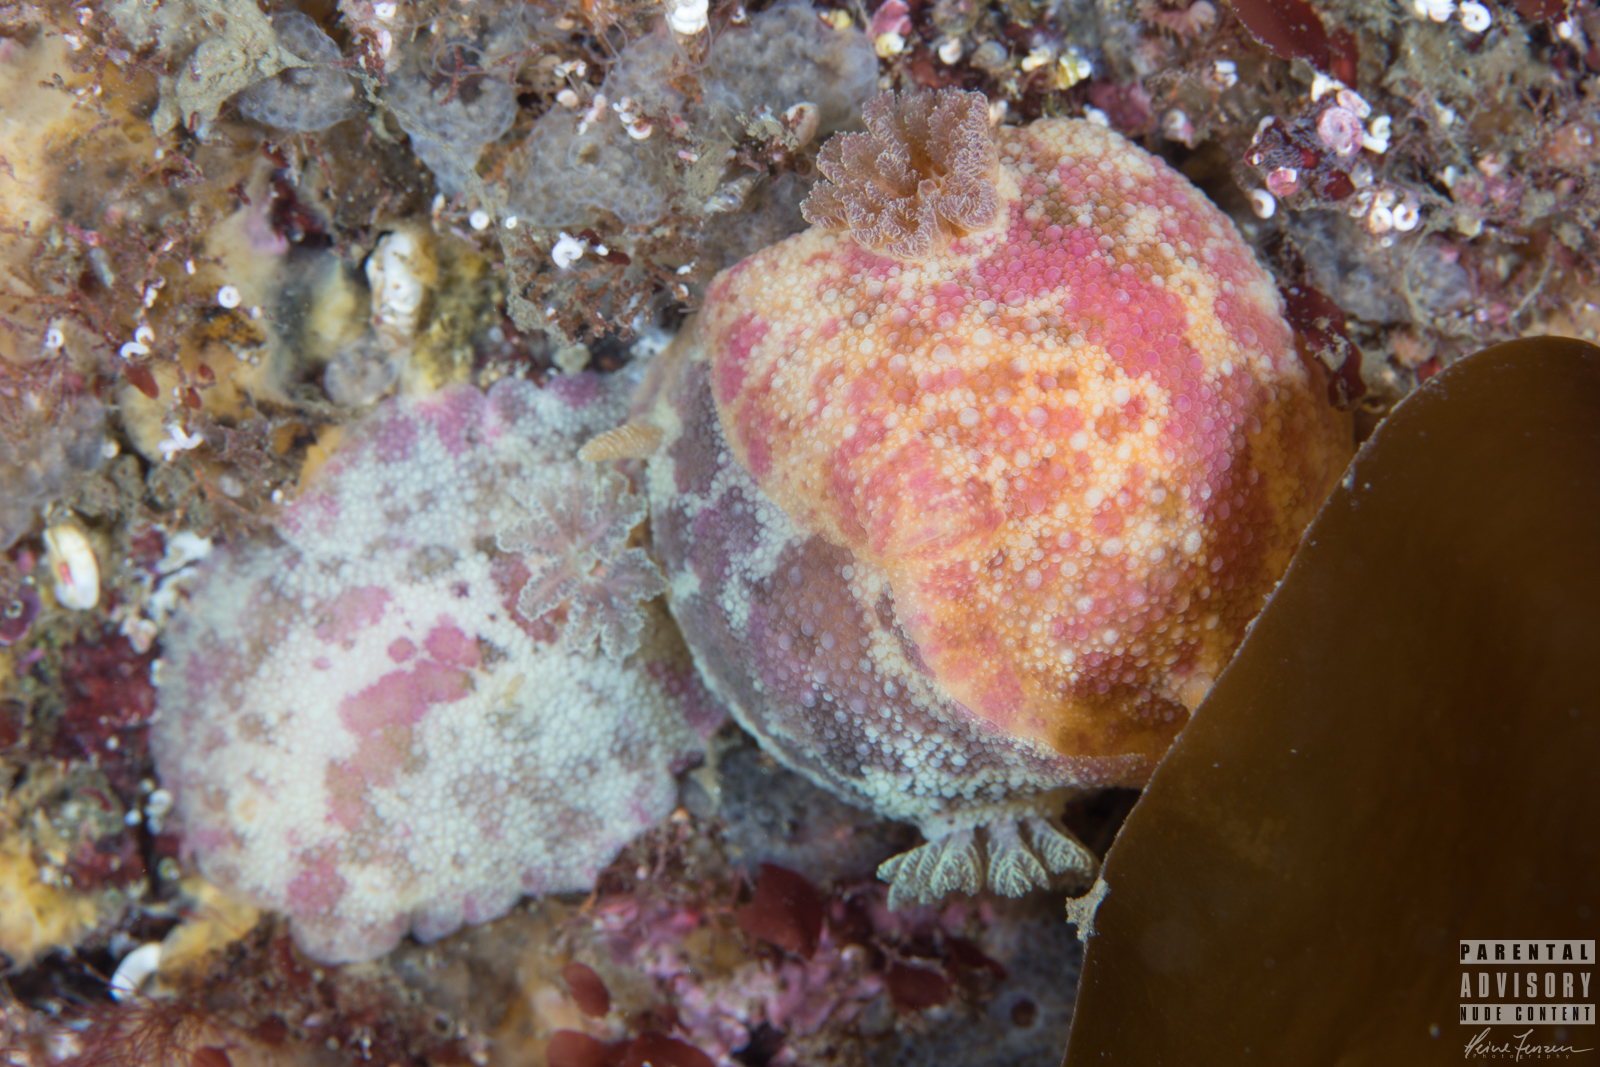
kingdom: Animalia
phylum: Mollusca
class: Gastropoda
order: Nudibranchia
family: Dorididae
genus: Doris
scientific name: Doris pseudoargus
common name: Sea lemon
